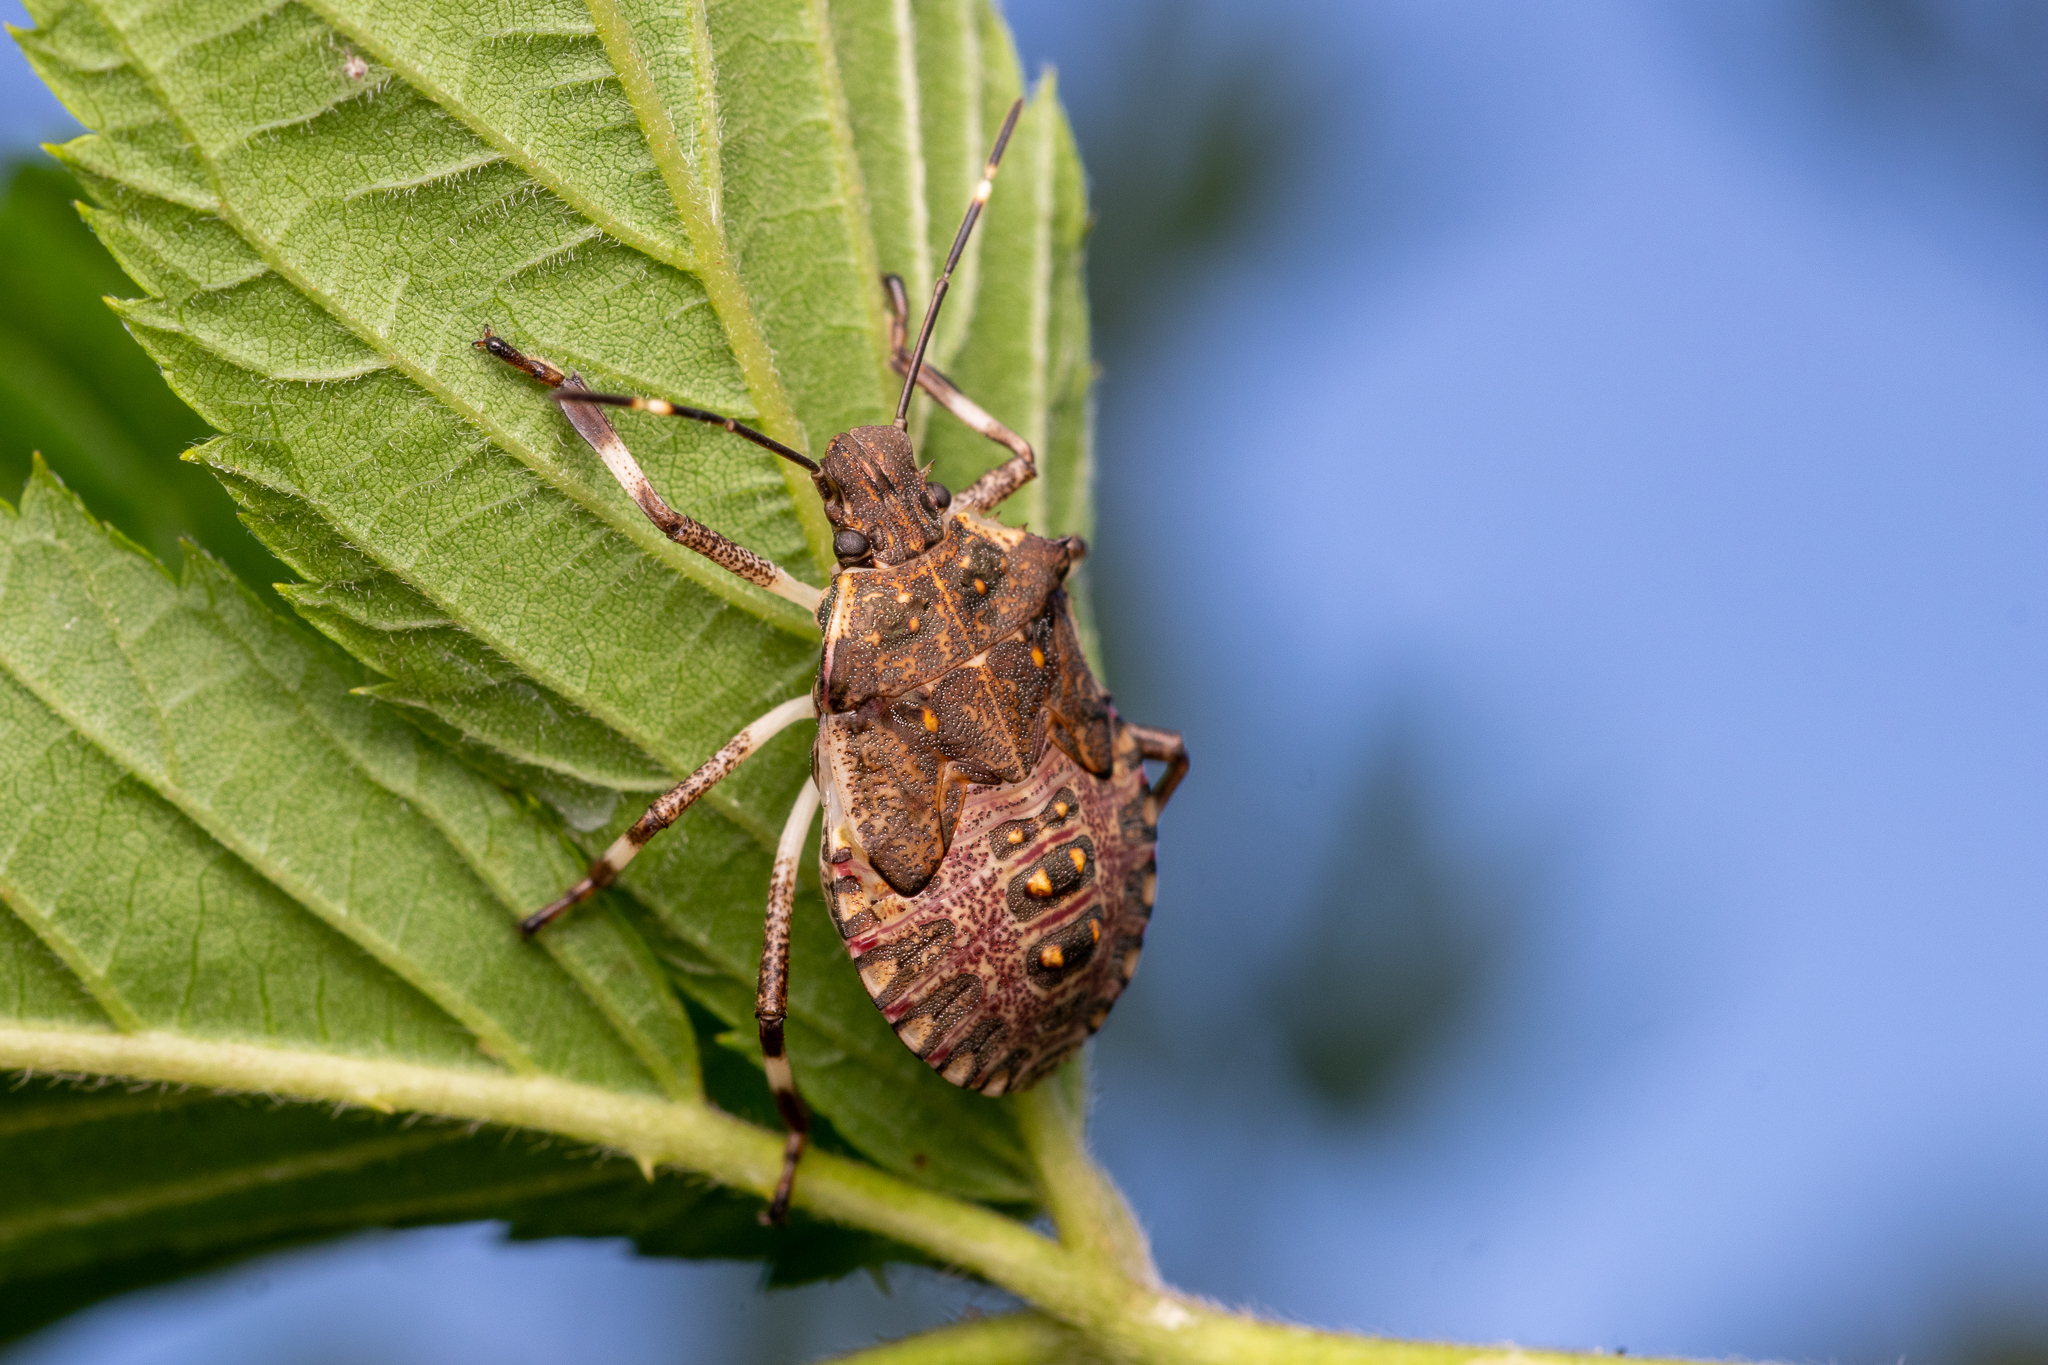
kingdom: Animalia
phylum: Arthropoda
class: Insecta
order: Hemiptera
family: Pentatomidae
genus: Halyomorpha
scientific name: Halyomorpha halys
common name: Brown marmorated stink bug
